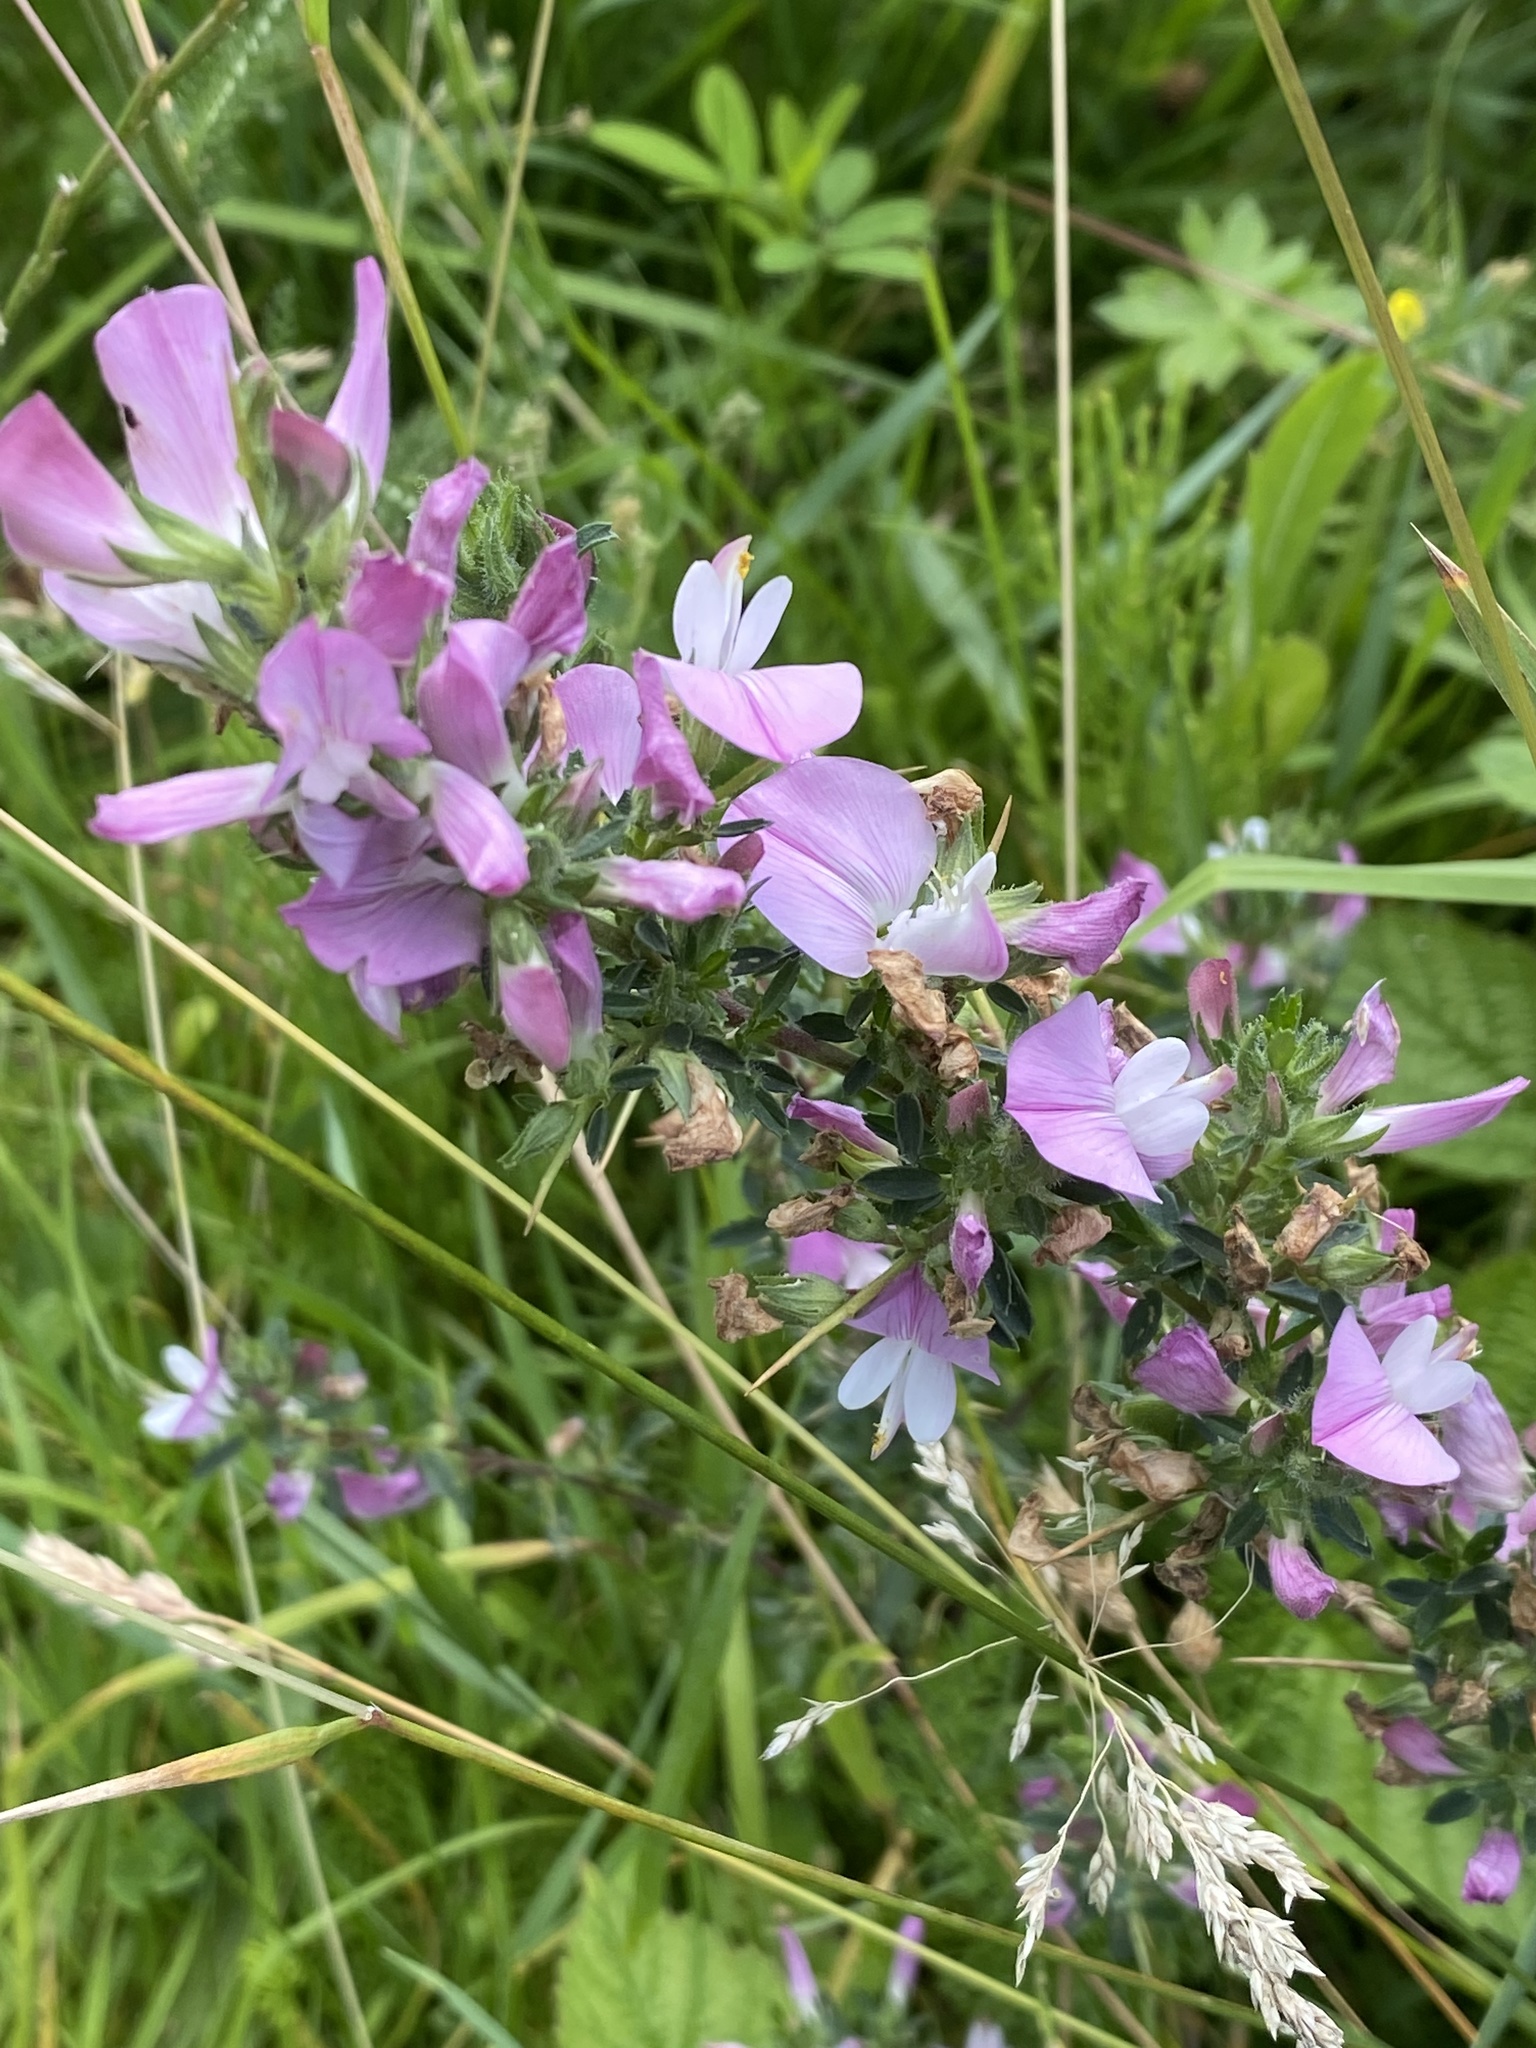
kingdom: Plantae
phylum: Tracheophyta
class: Magnoliopsida
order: Fabales
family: Fabaceae
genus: Ononis
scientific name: Ononis spinosa
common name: Spiny restharrow
